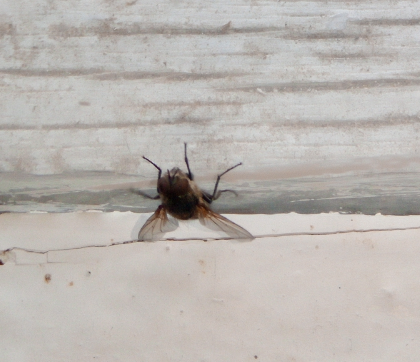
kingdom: Animalia
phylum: Arthropoda
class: Insecta
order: Diptera
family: Muscidae
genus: Musca
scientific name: Musca domestica
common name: House fly
